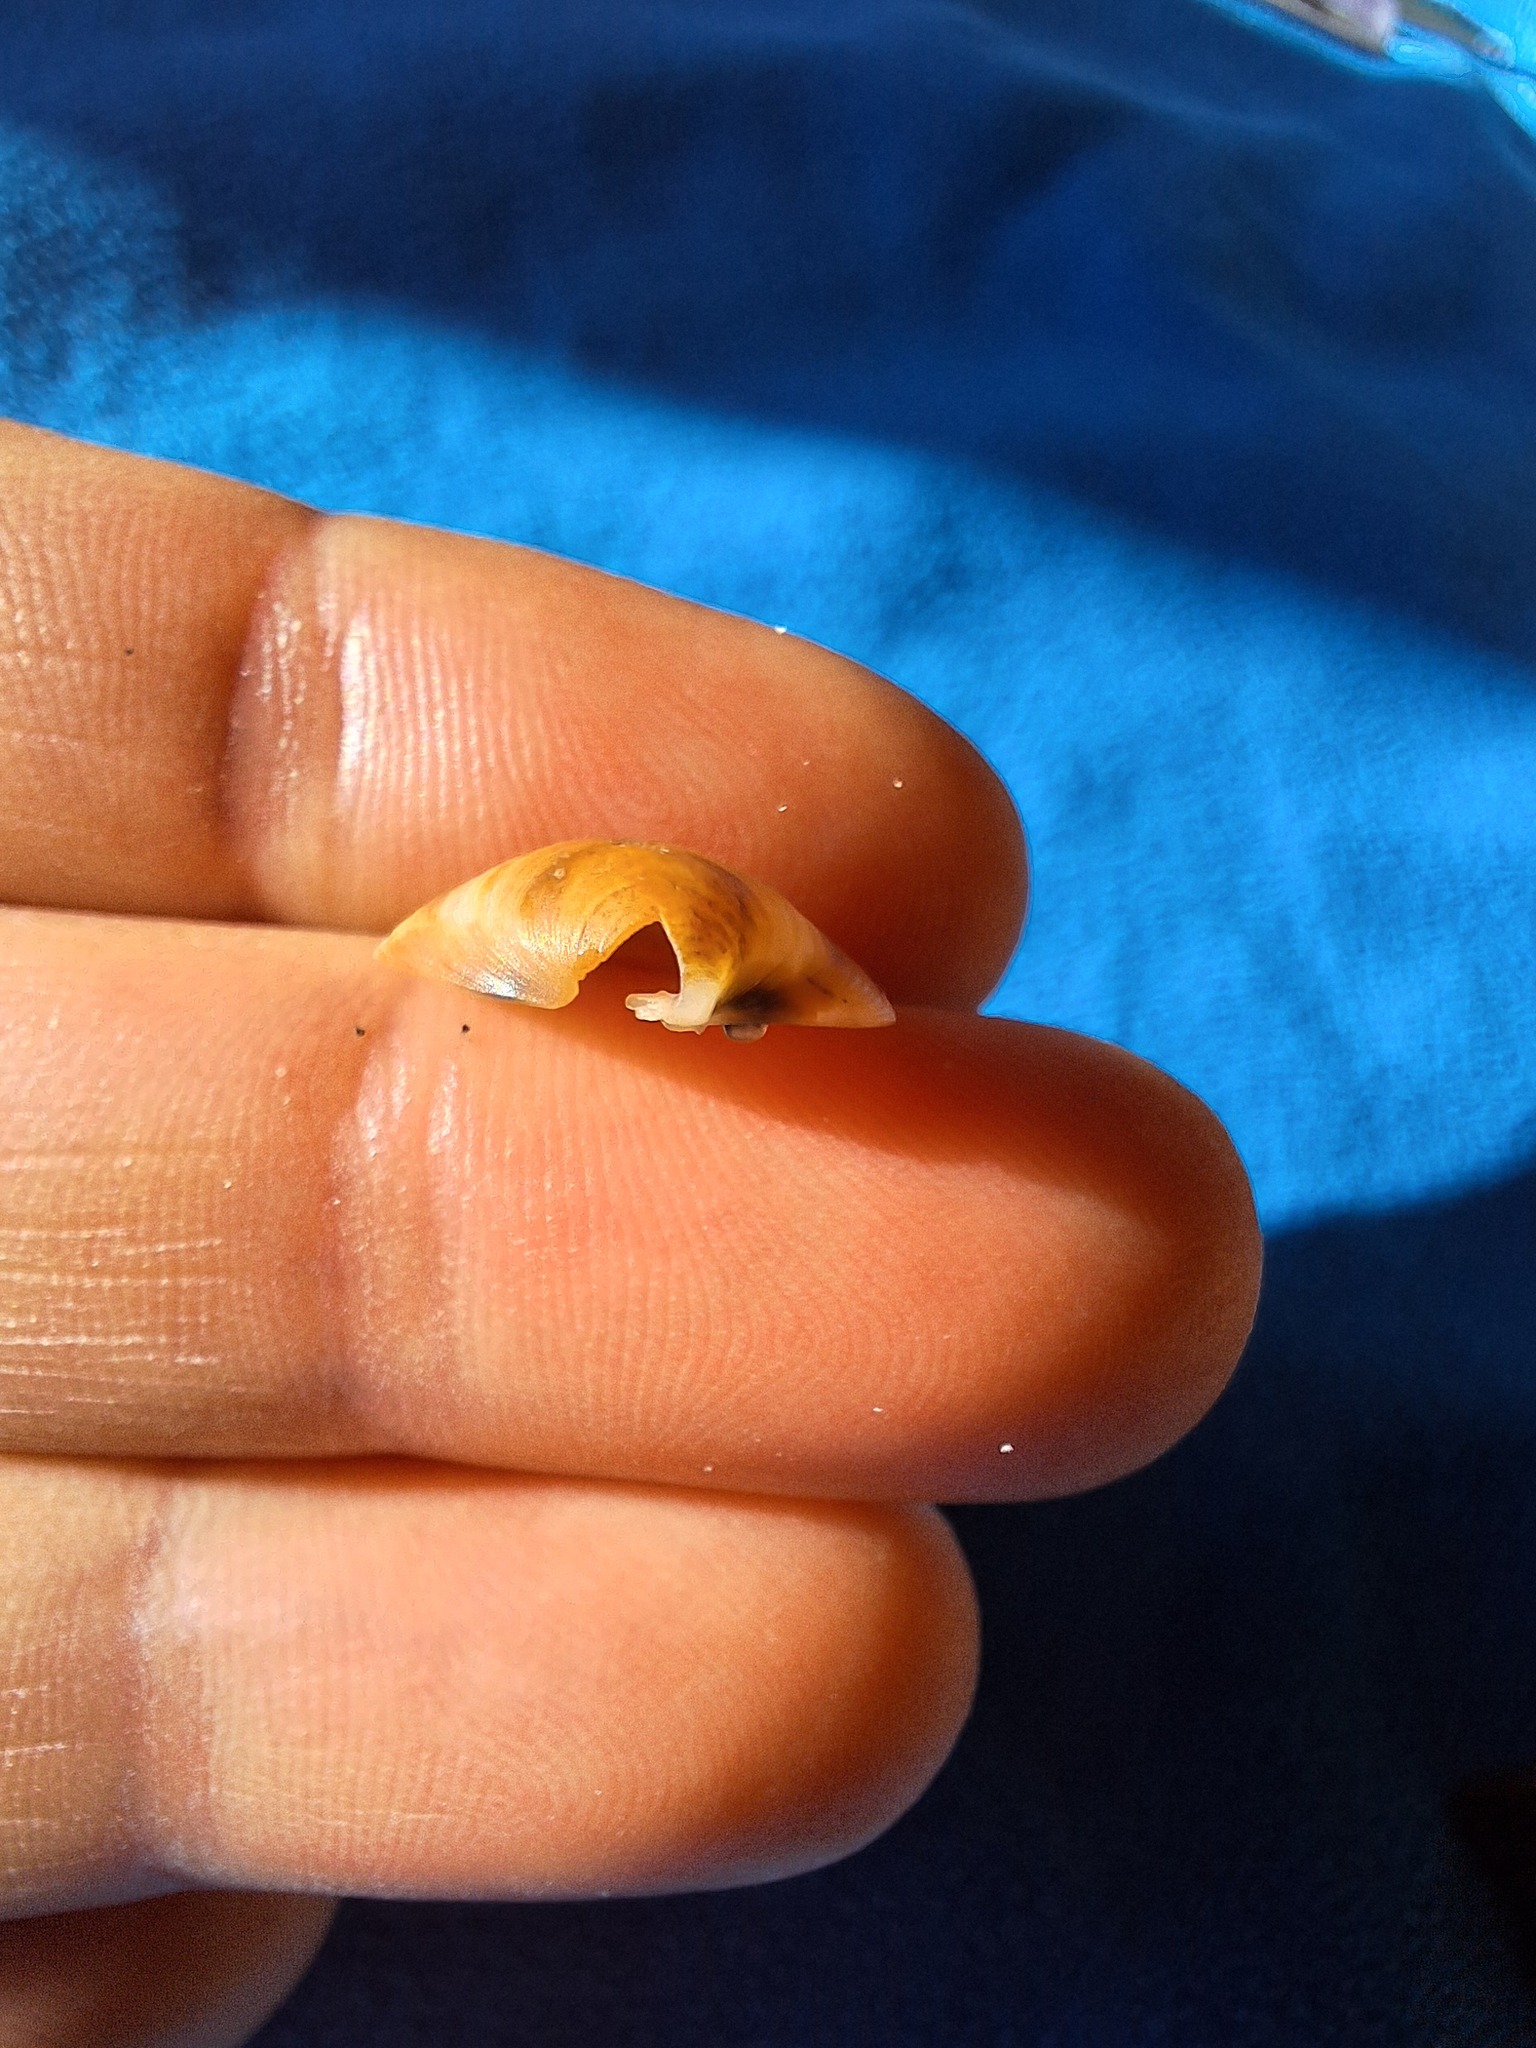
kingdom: Animalia
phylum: Mollusca
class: Bivalvia
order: Venerida
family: Veneridae
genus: Pitar
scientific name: Pitar rudis
